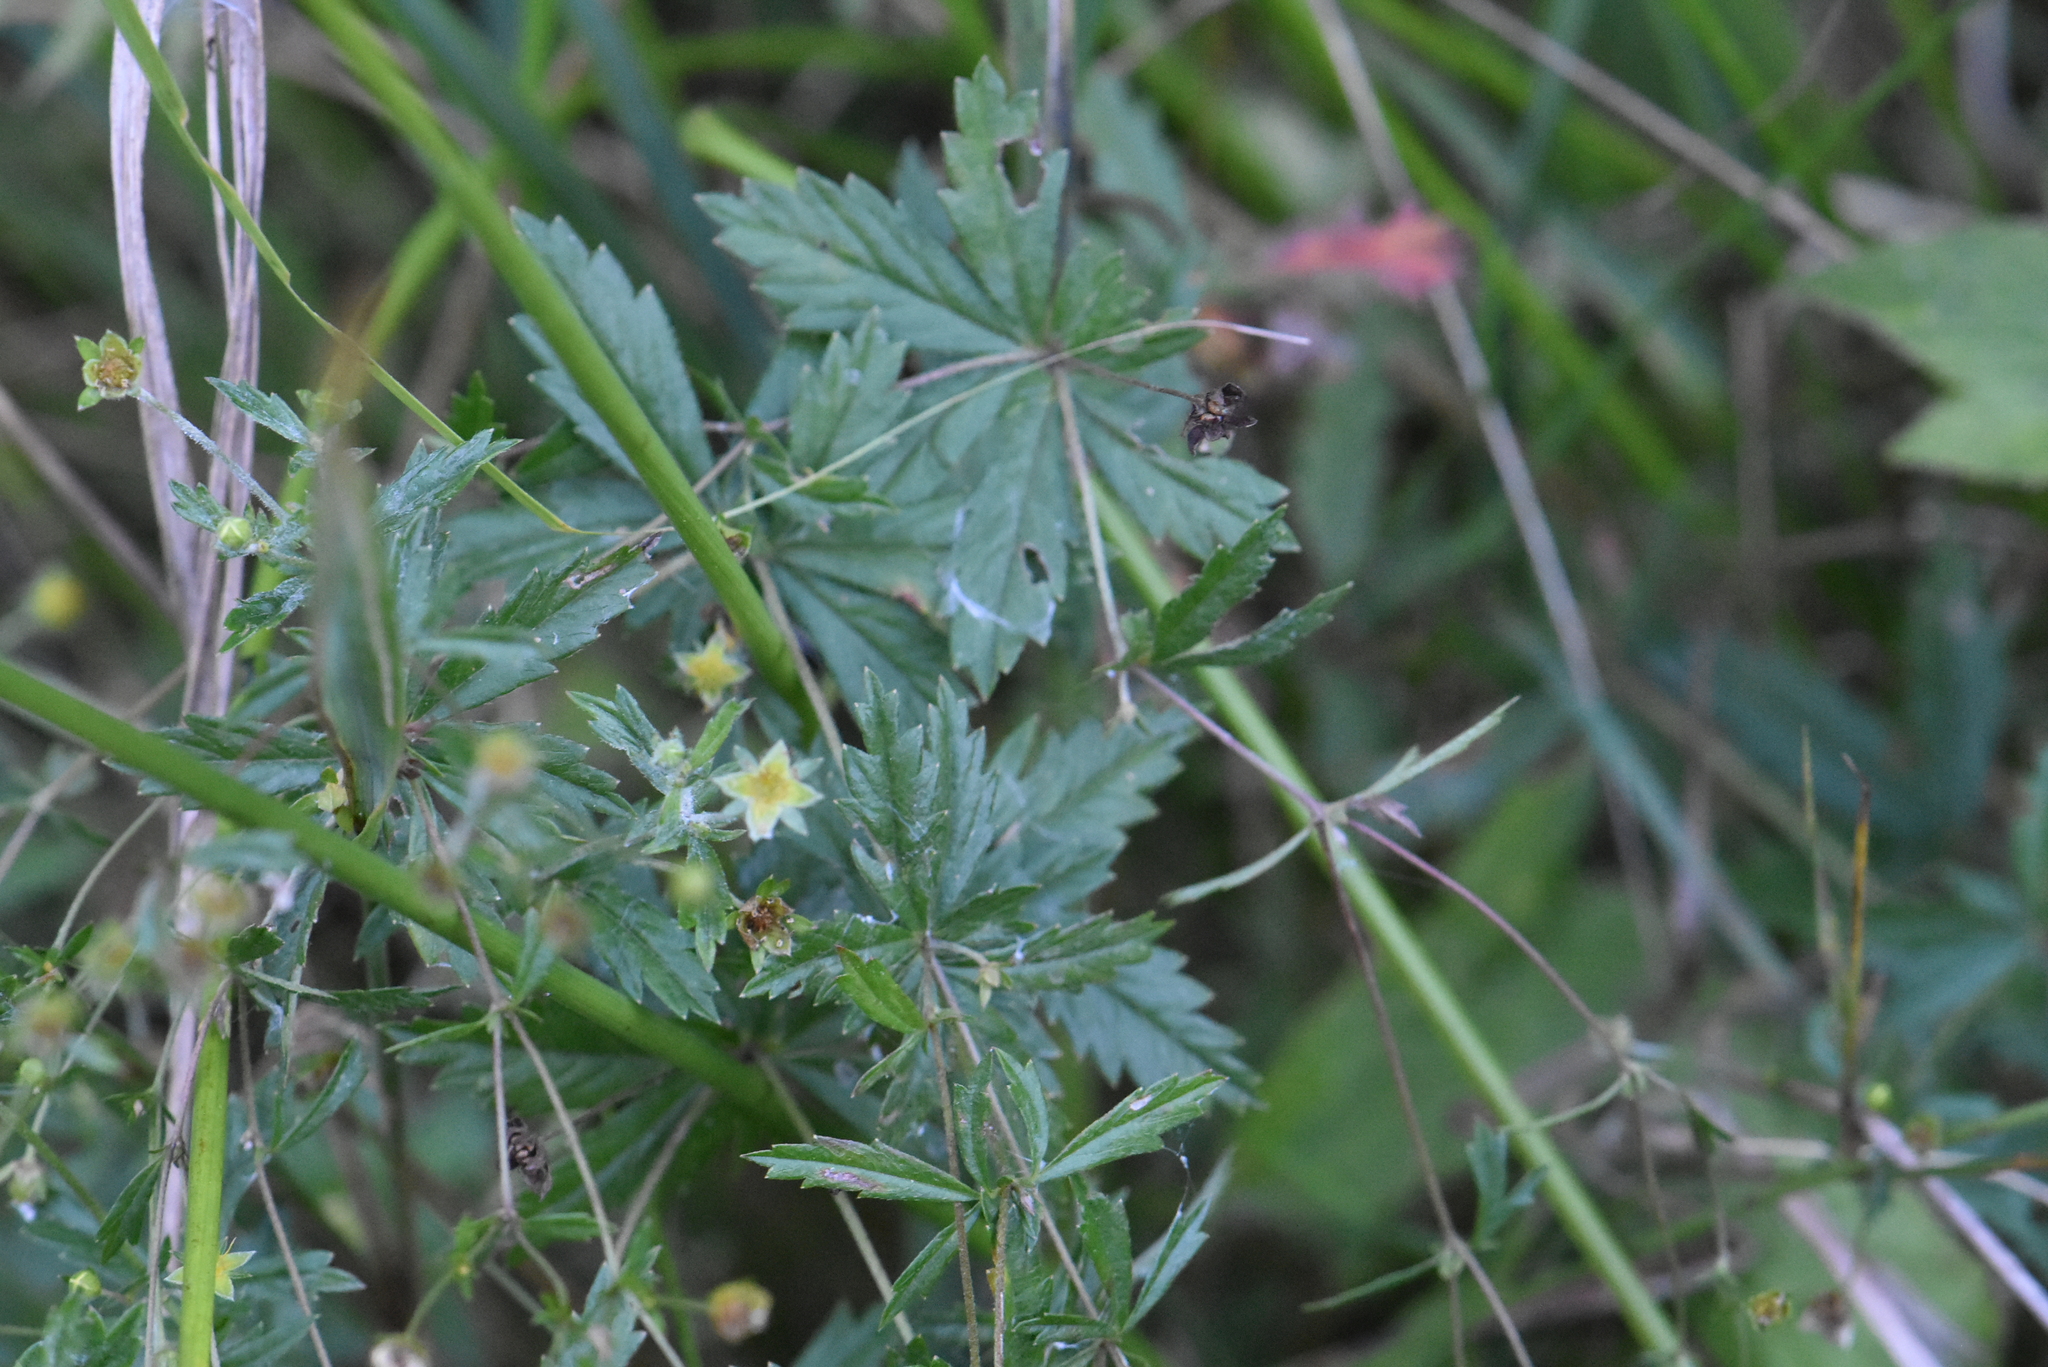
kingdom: Plantae
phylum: Tracheophyta
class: Magnoliopsida
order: Rosales
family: Rosaceae
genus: Potentilla
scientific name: Potentilla erecta
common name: Tormentil
